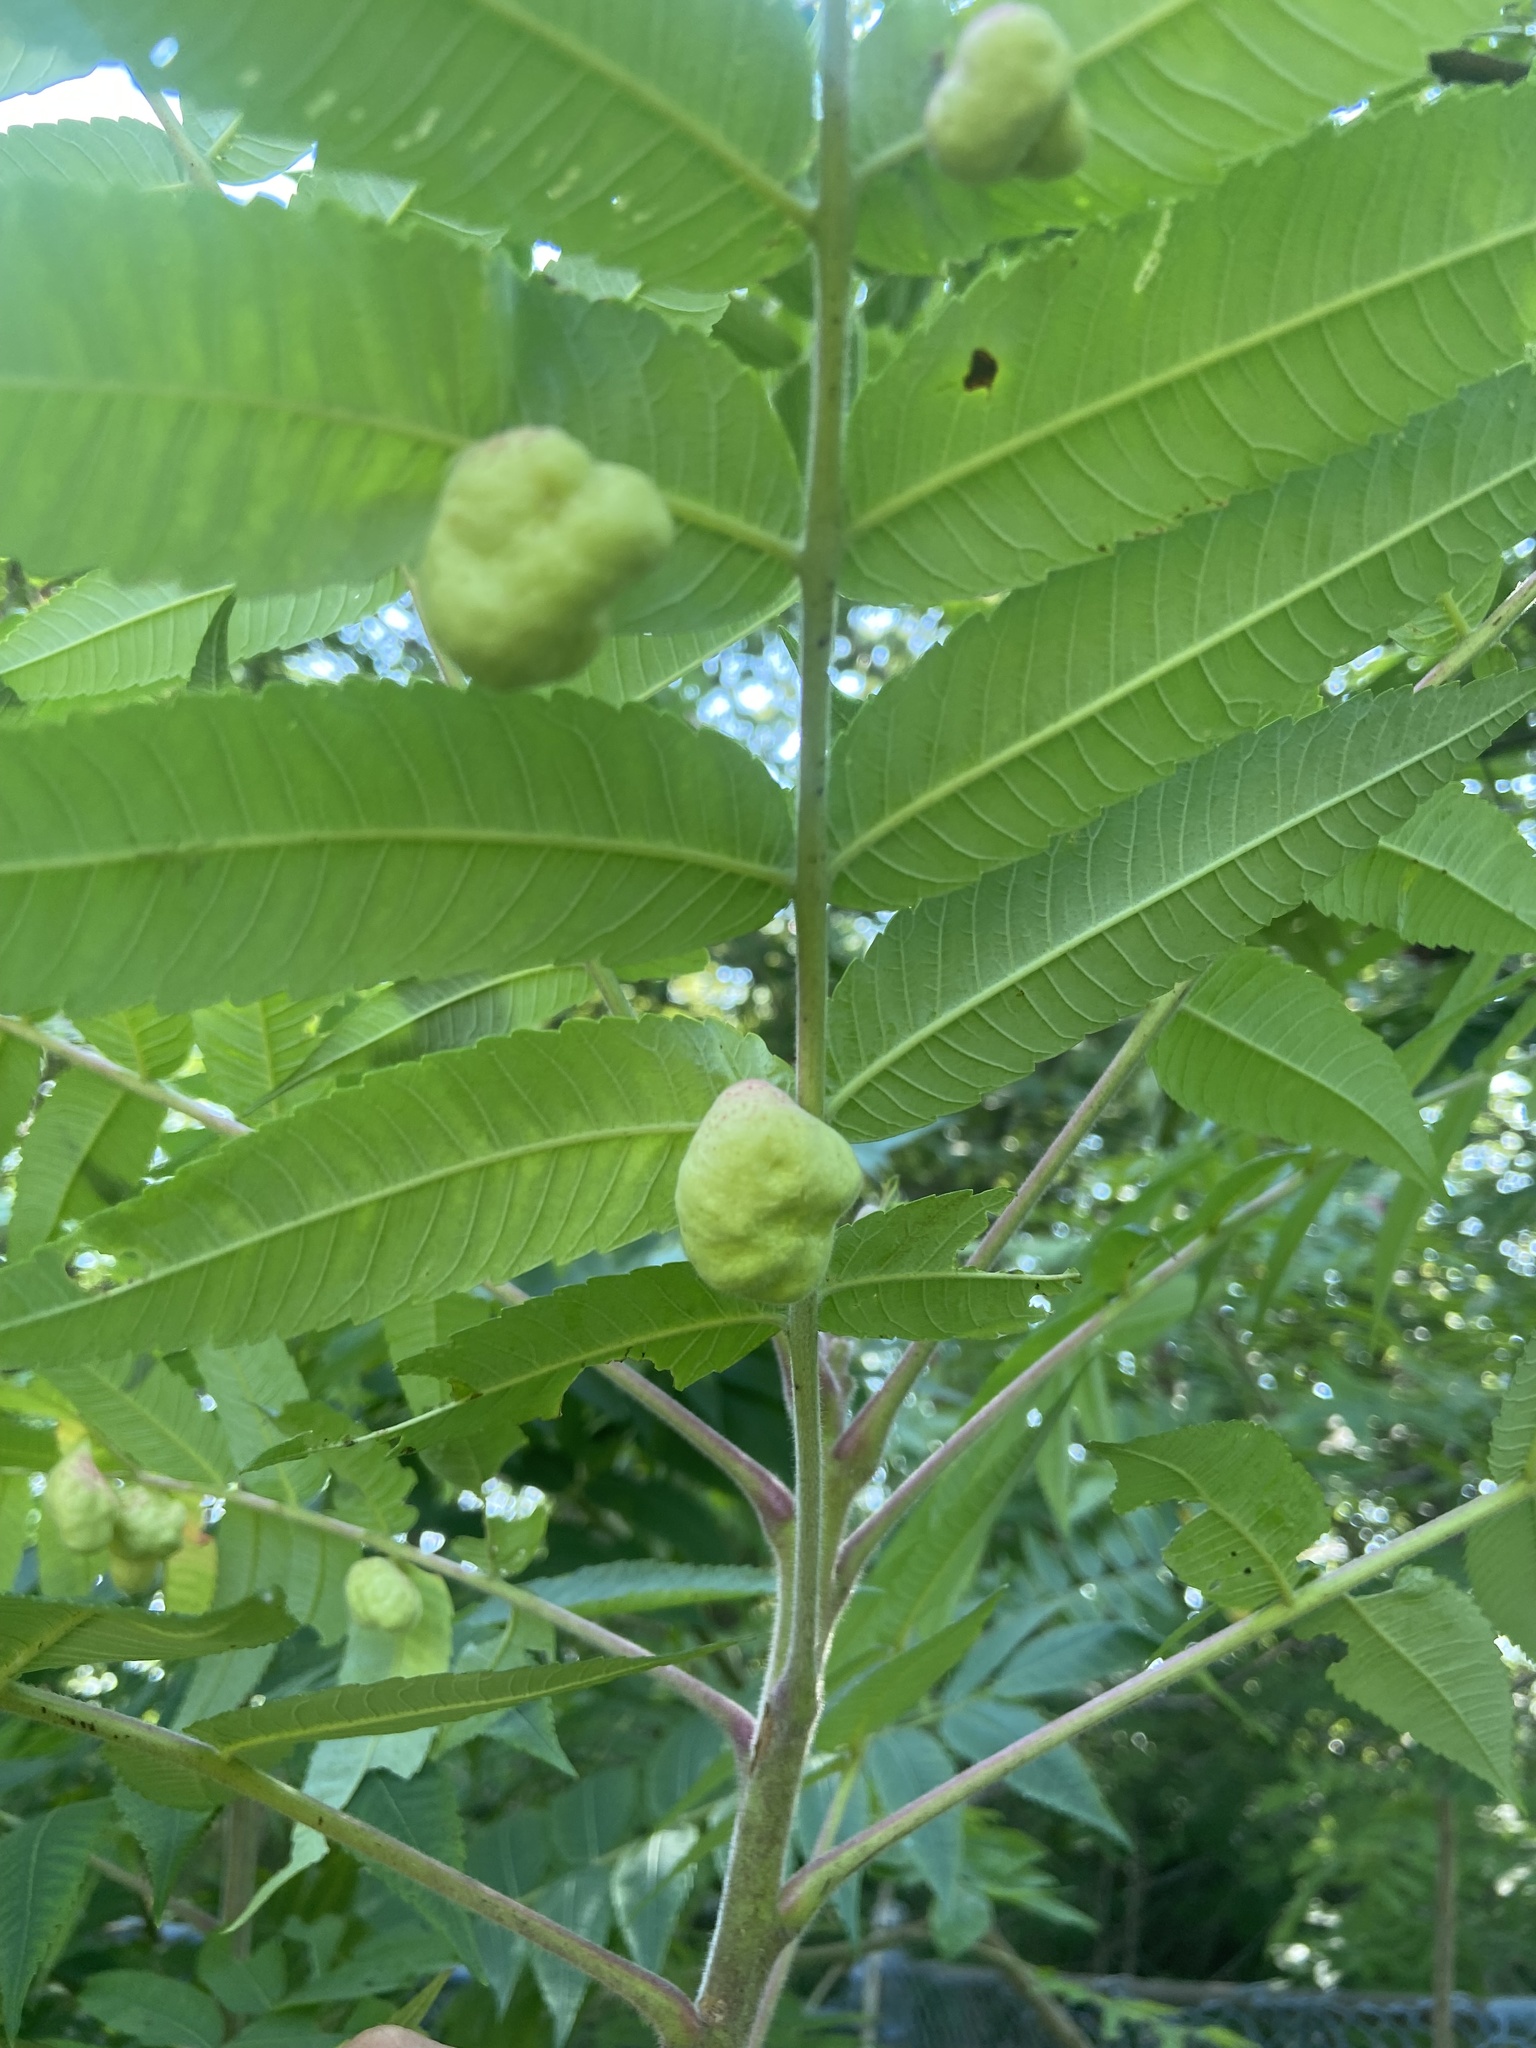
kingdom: Animalia
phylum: Arthropoda
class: Insecta
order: Hemiptera
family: Aphididae
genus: Melaphis
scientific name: Melaphis rhois
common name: Sumac gall aphid
